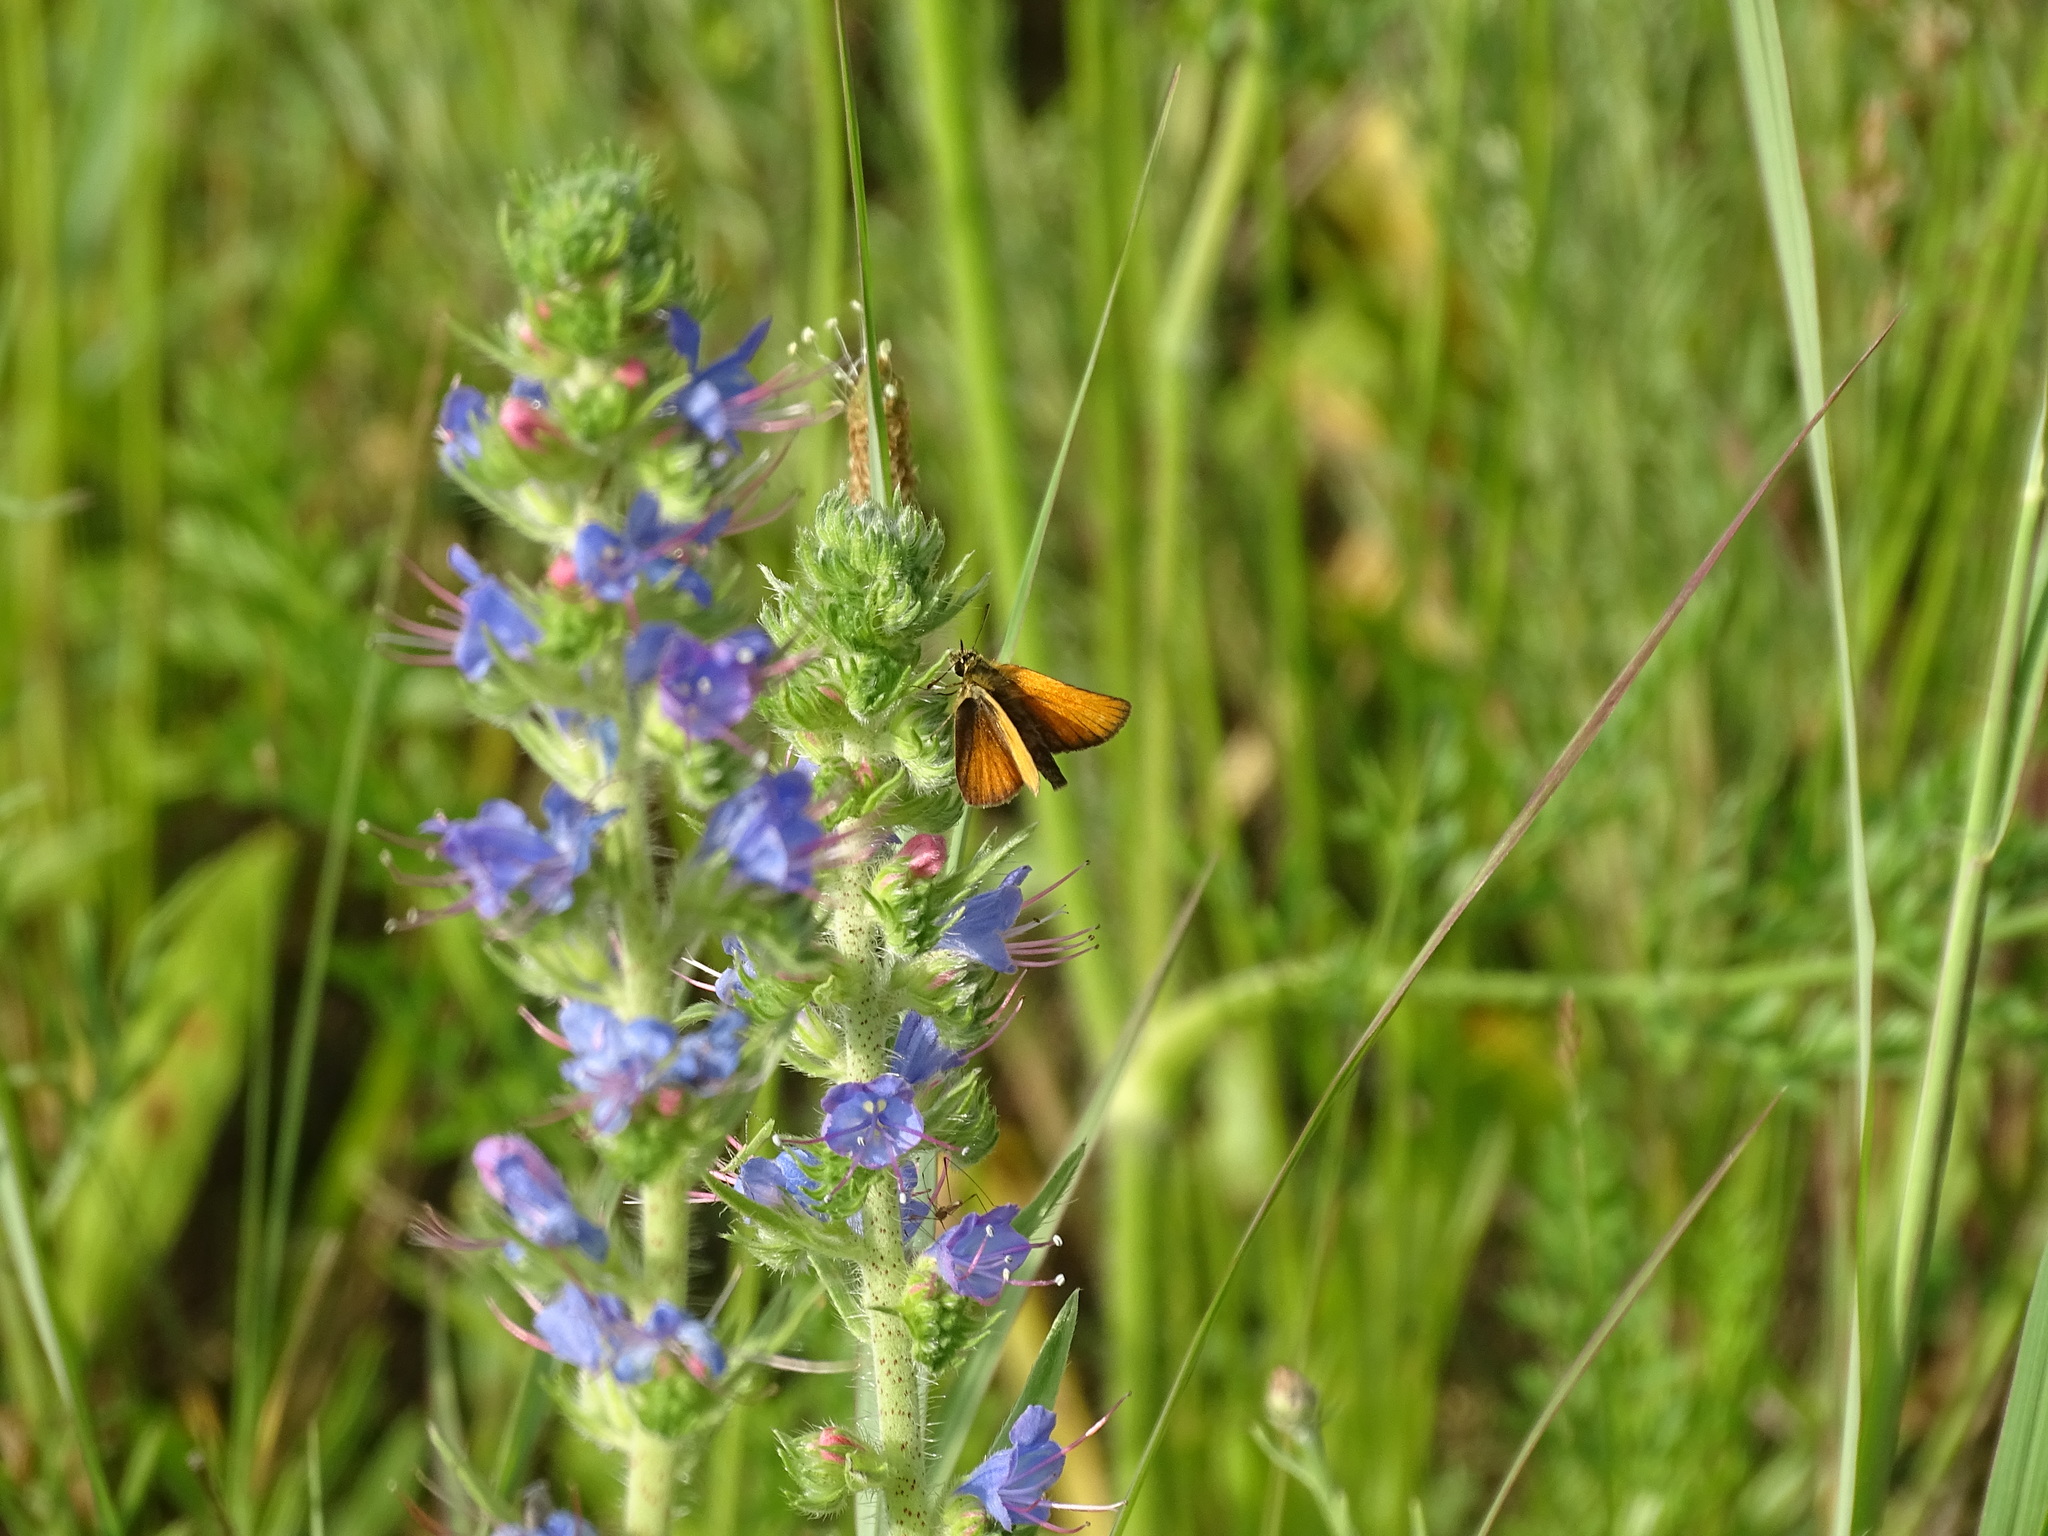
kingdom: Animalia
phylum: Arthropoda
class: Insecta
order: Lepidoptera
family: Hesperiidae
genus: Thymelicus
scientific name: Thymelicus lineola
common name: Essex skipper
